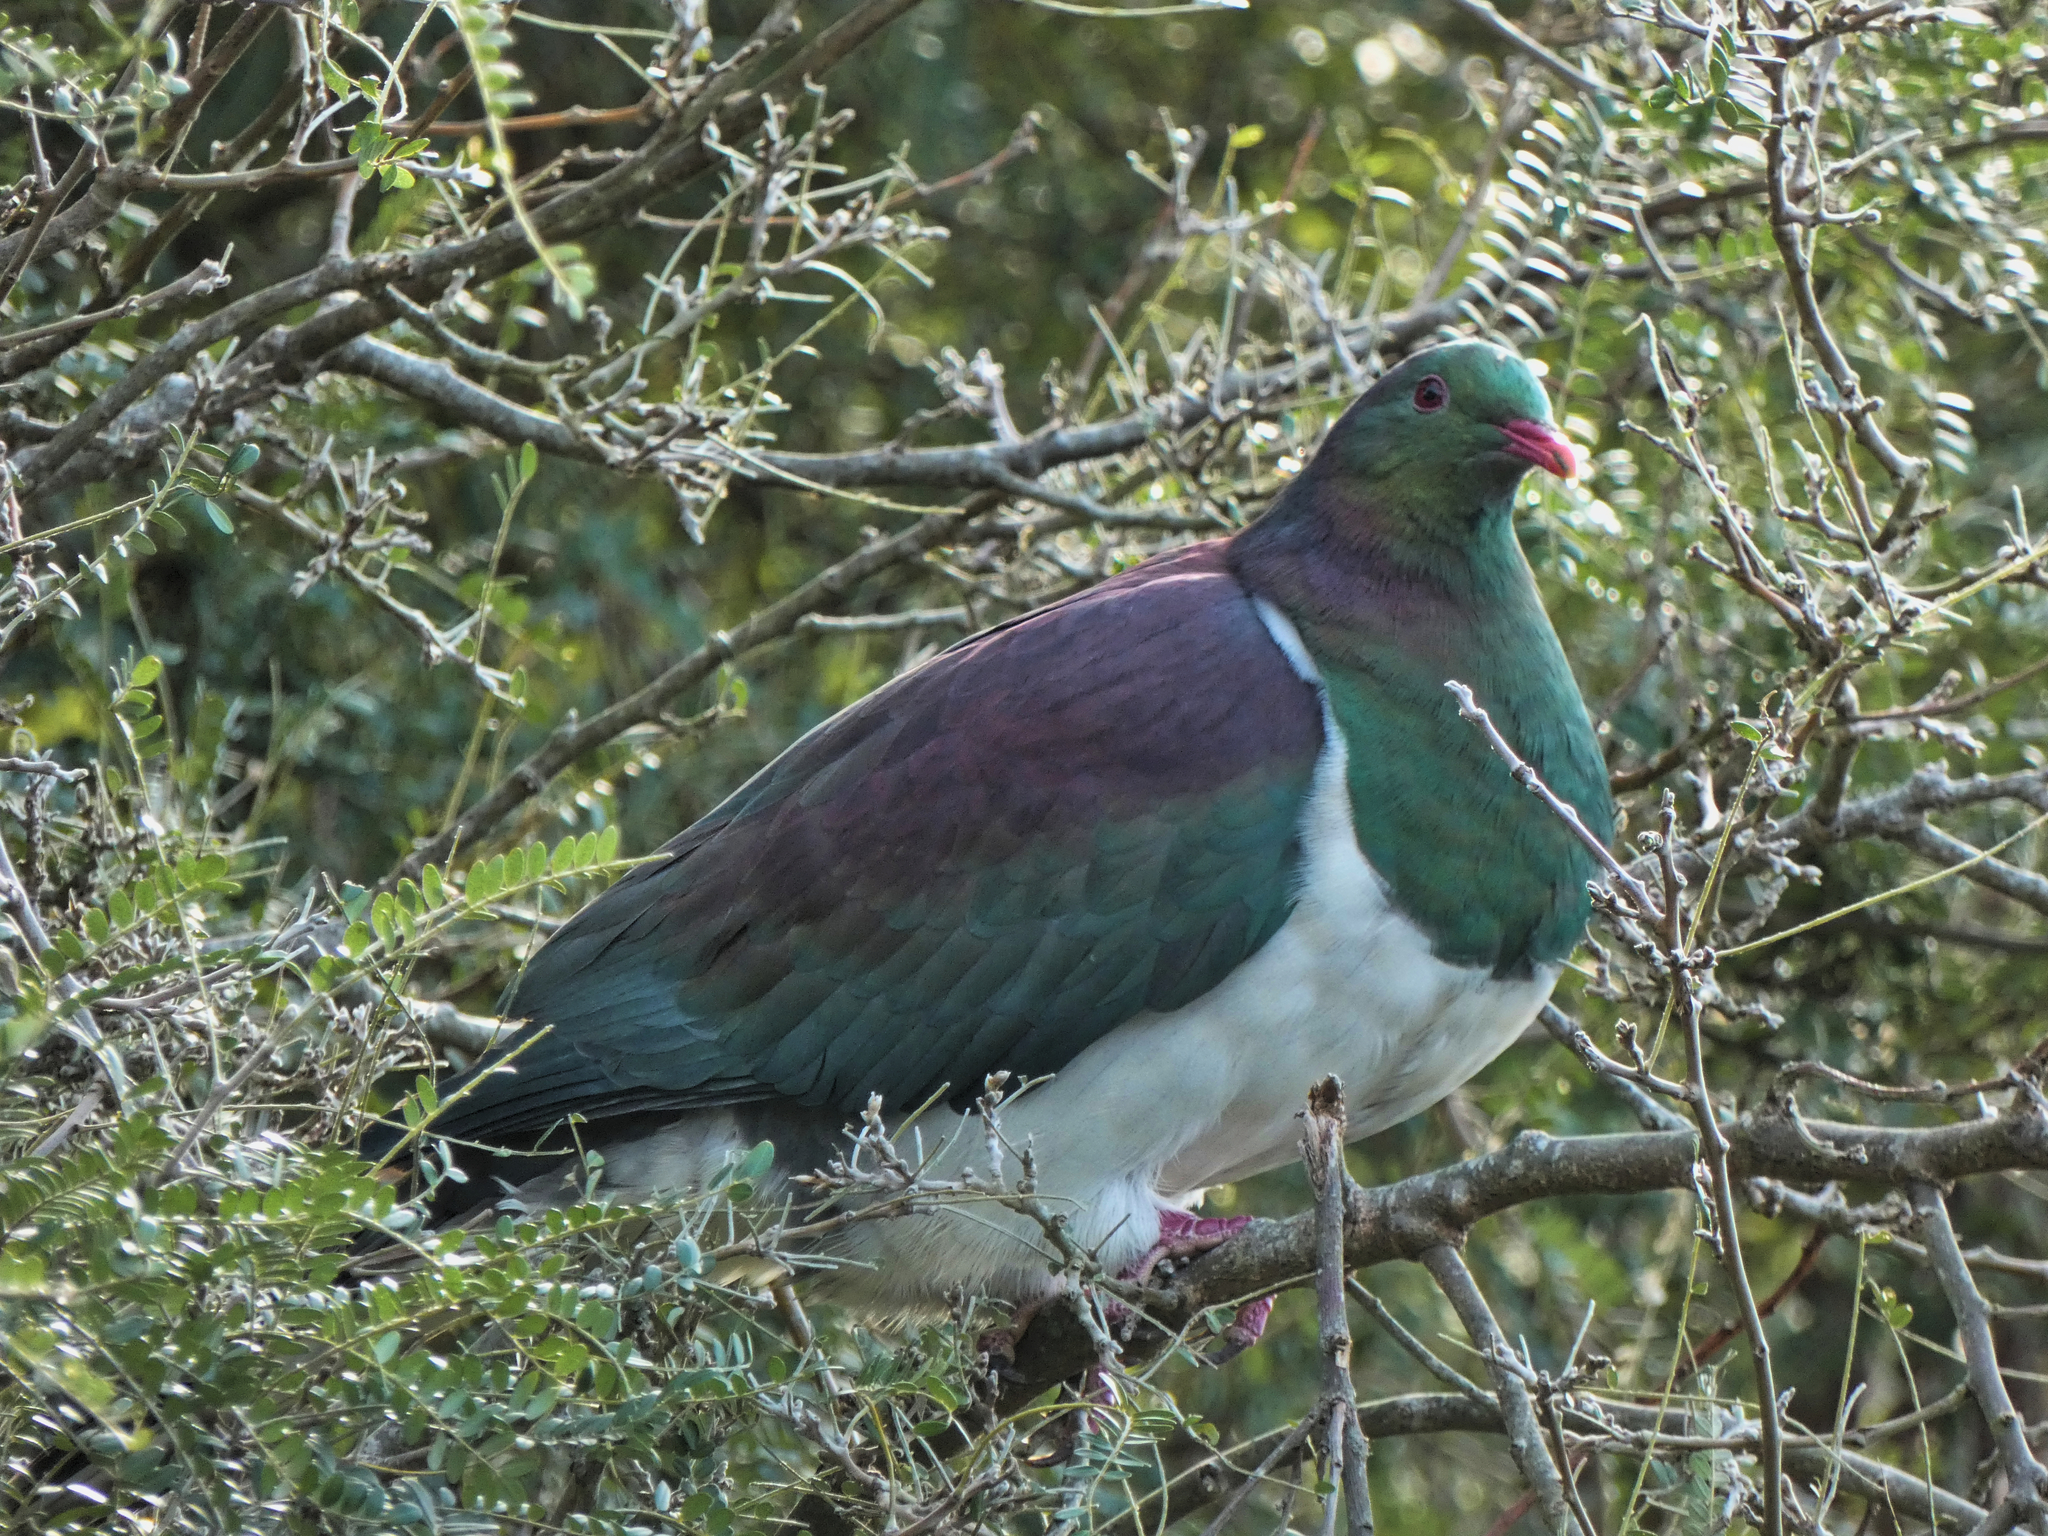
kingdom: Animalia
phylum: Chordata
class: Aves
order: Columbiformes
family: Columbidae
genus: Hemiphaga
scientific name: Hemiphaga novaeseelandiae
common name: New zealand pigeon
